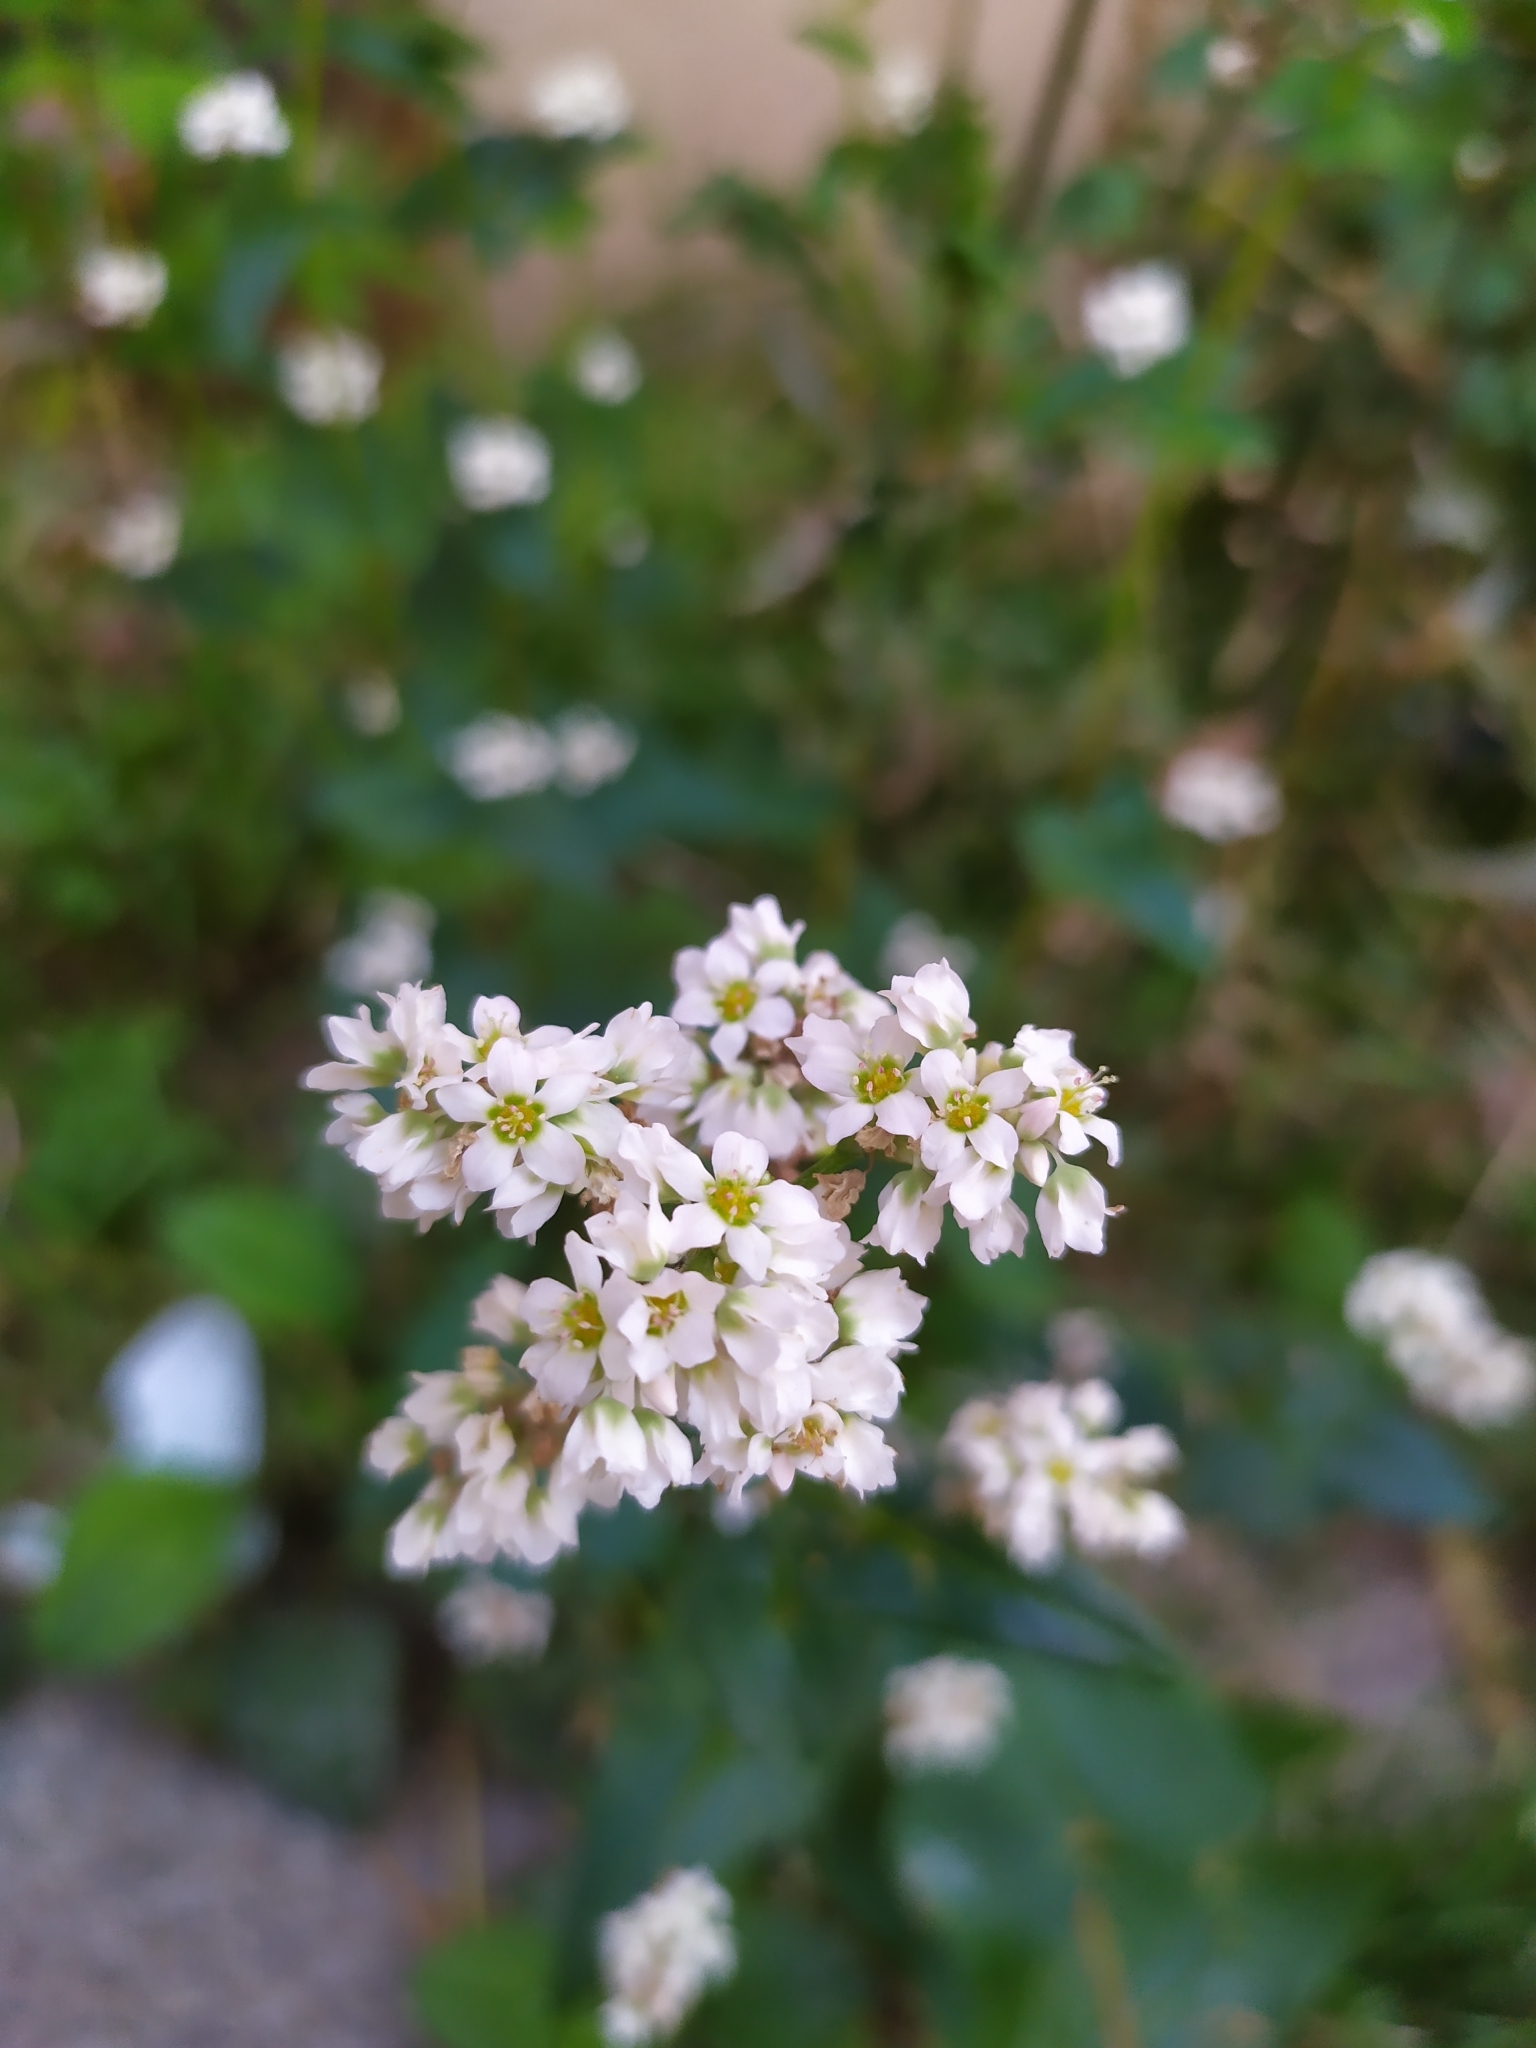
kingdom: Plantae
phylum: Tracheophyta
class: Magnoliopsida
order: Caryophyllales
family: Polygonaceae
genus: Fagopyrum
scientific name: Fagopyrum esculentum
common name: Buckwheat
